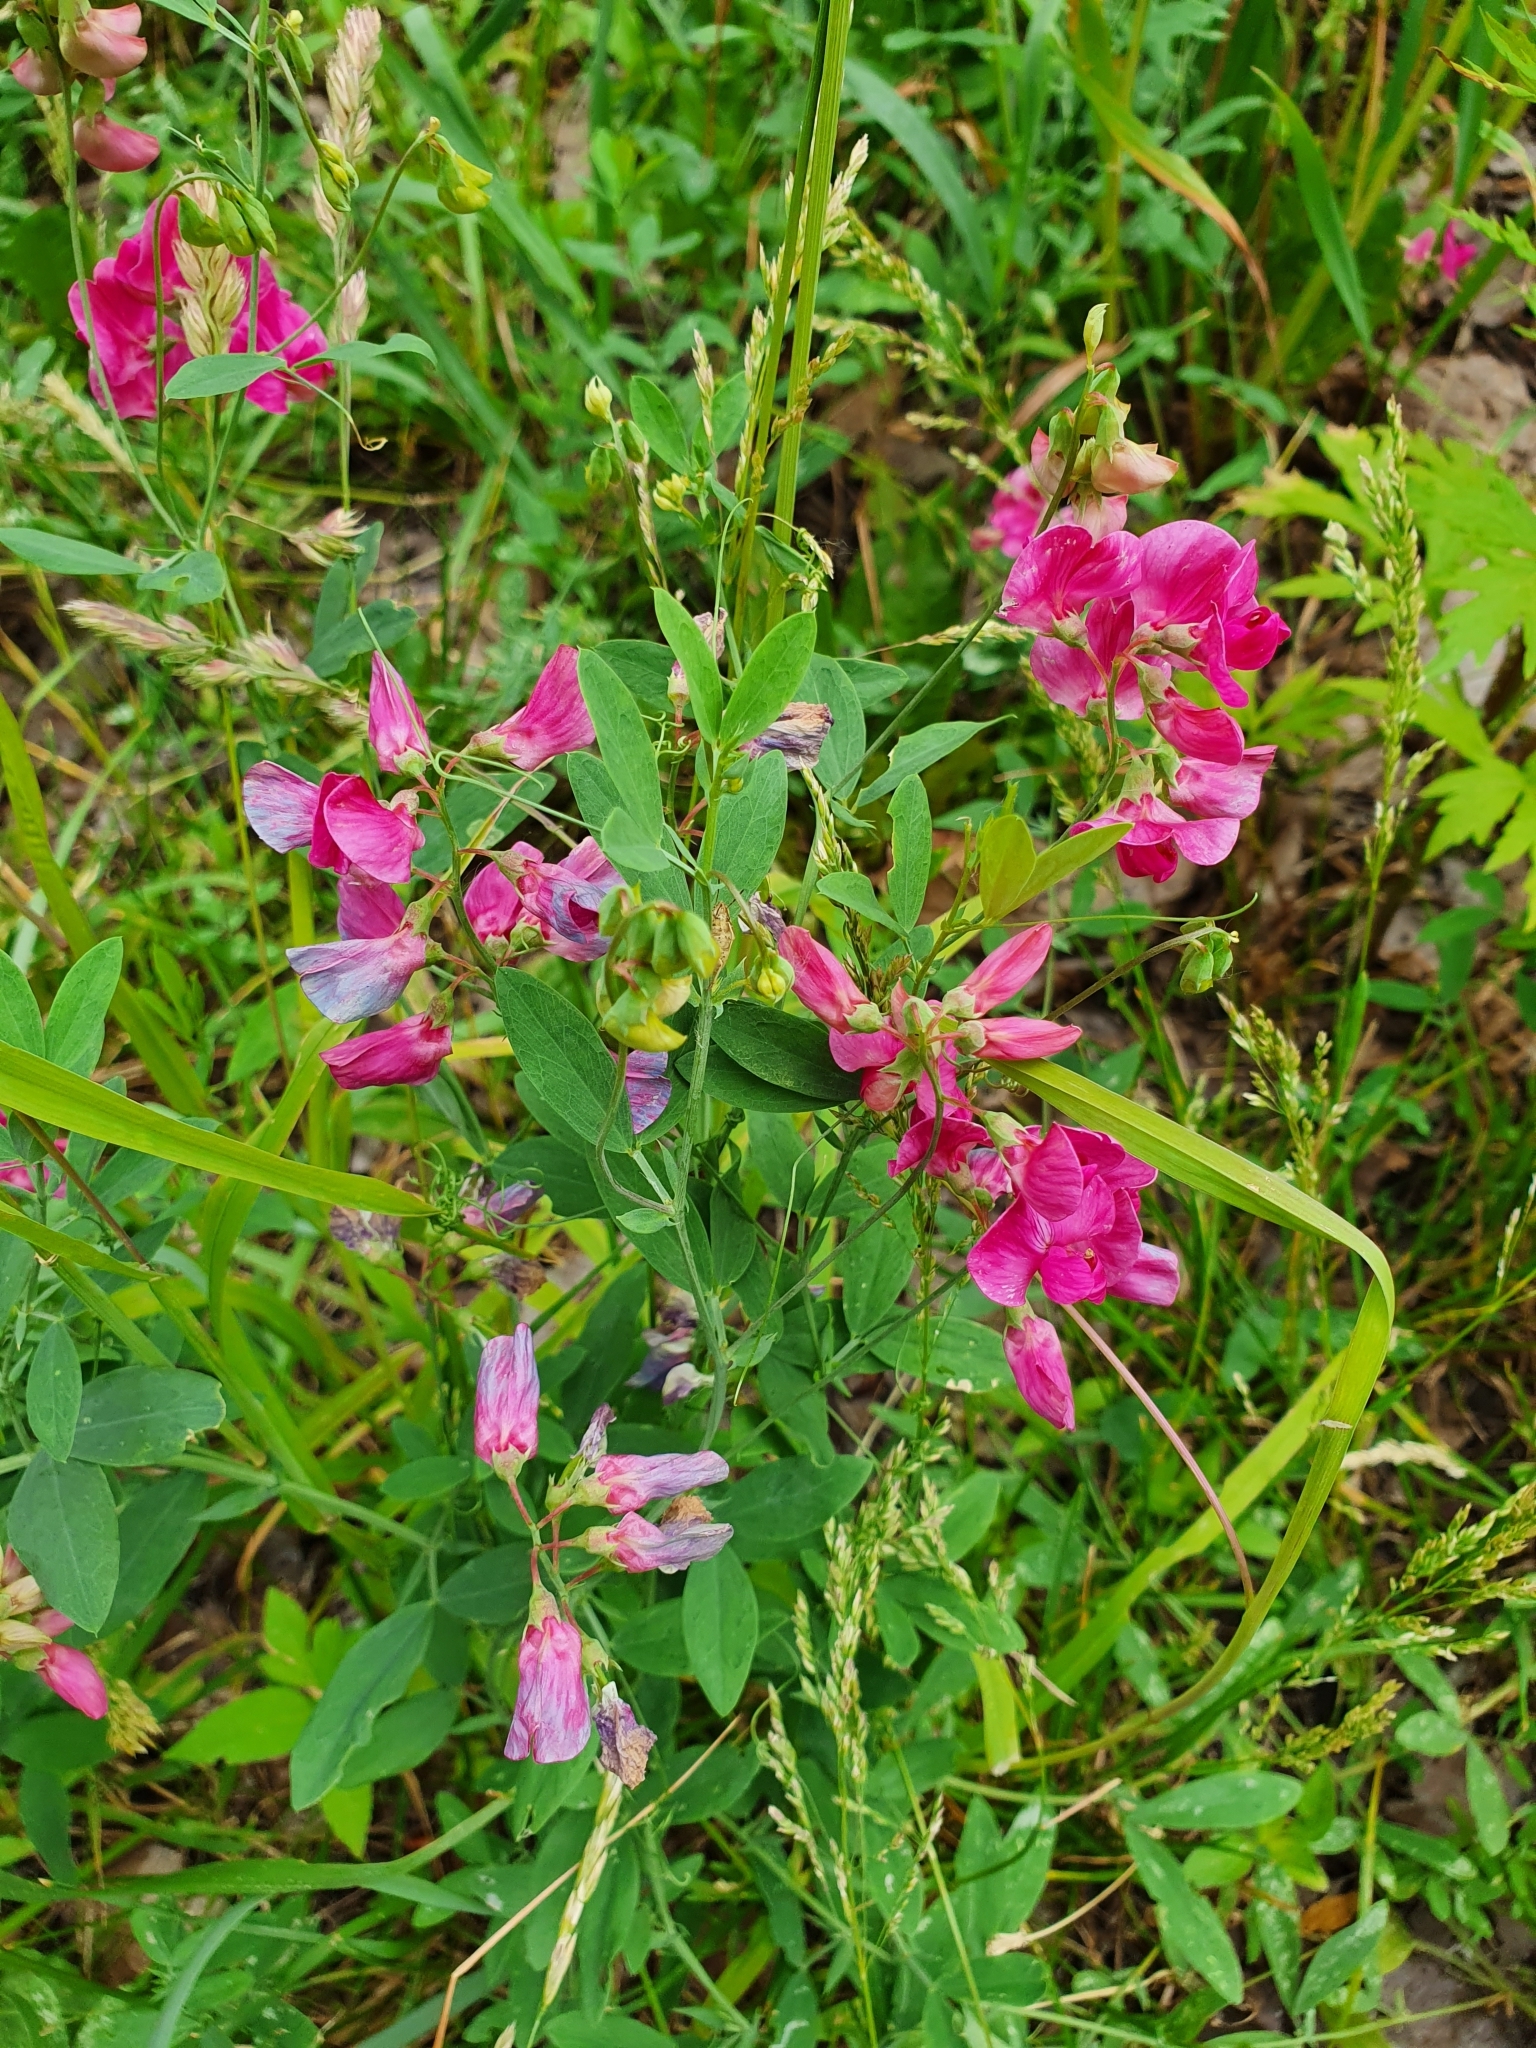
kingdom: Plantae
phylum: Tracheophyta
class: Magnoliopsida
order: Fabales
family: Fabaceae
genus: Lathyrus
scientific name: Lathyrus tuberosus
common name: Tuberous pea
